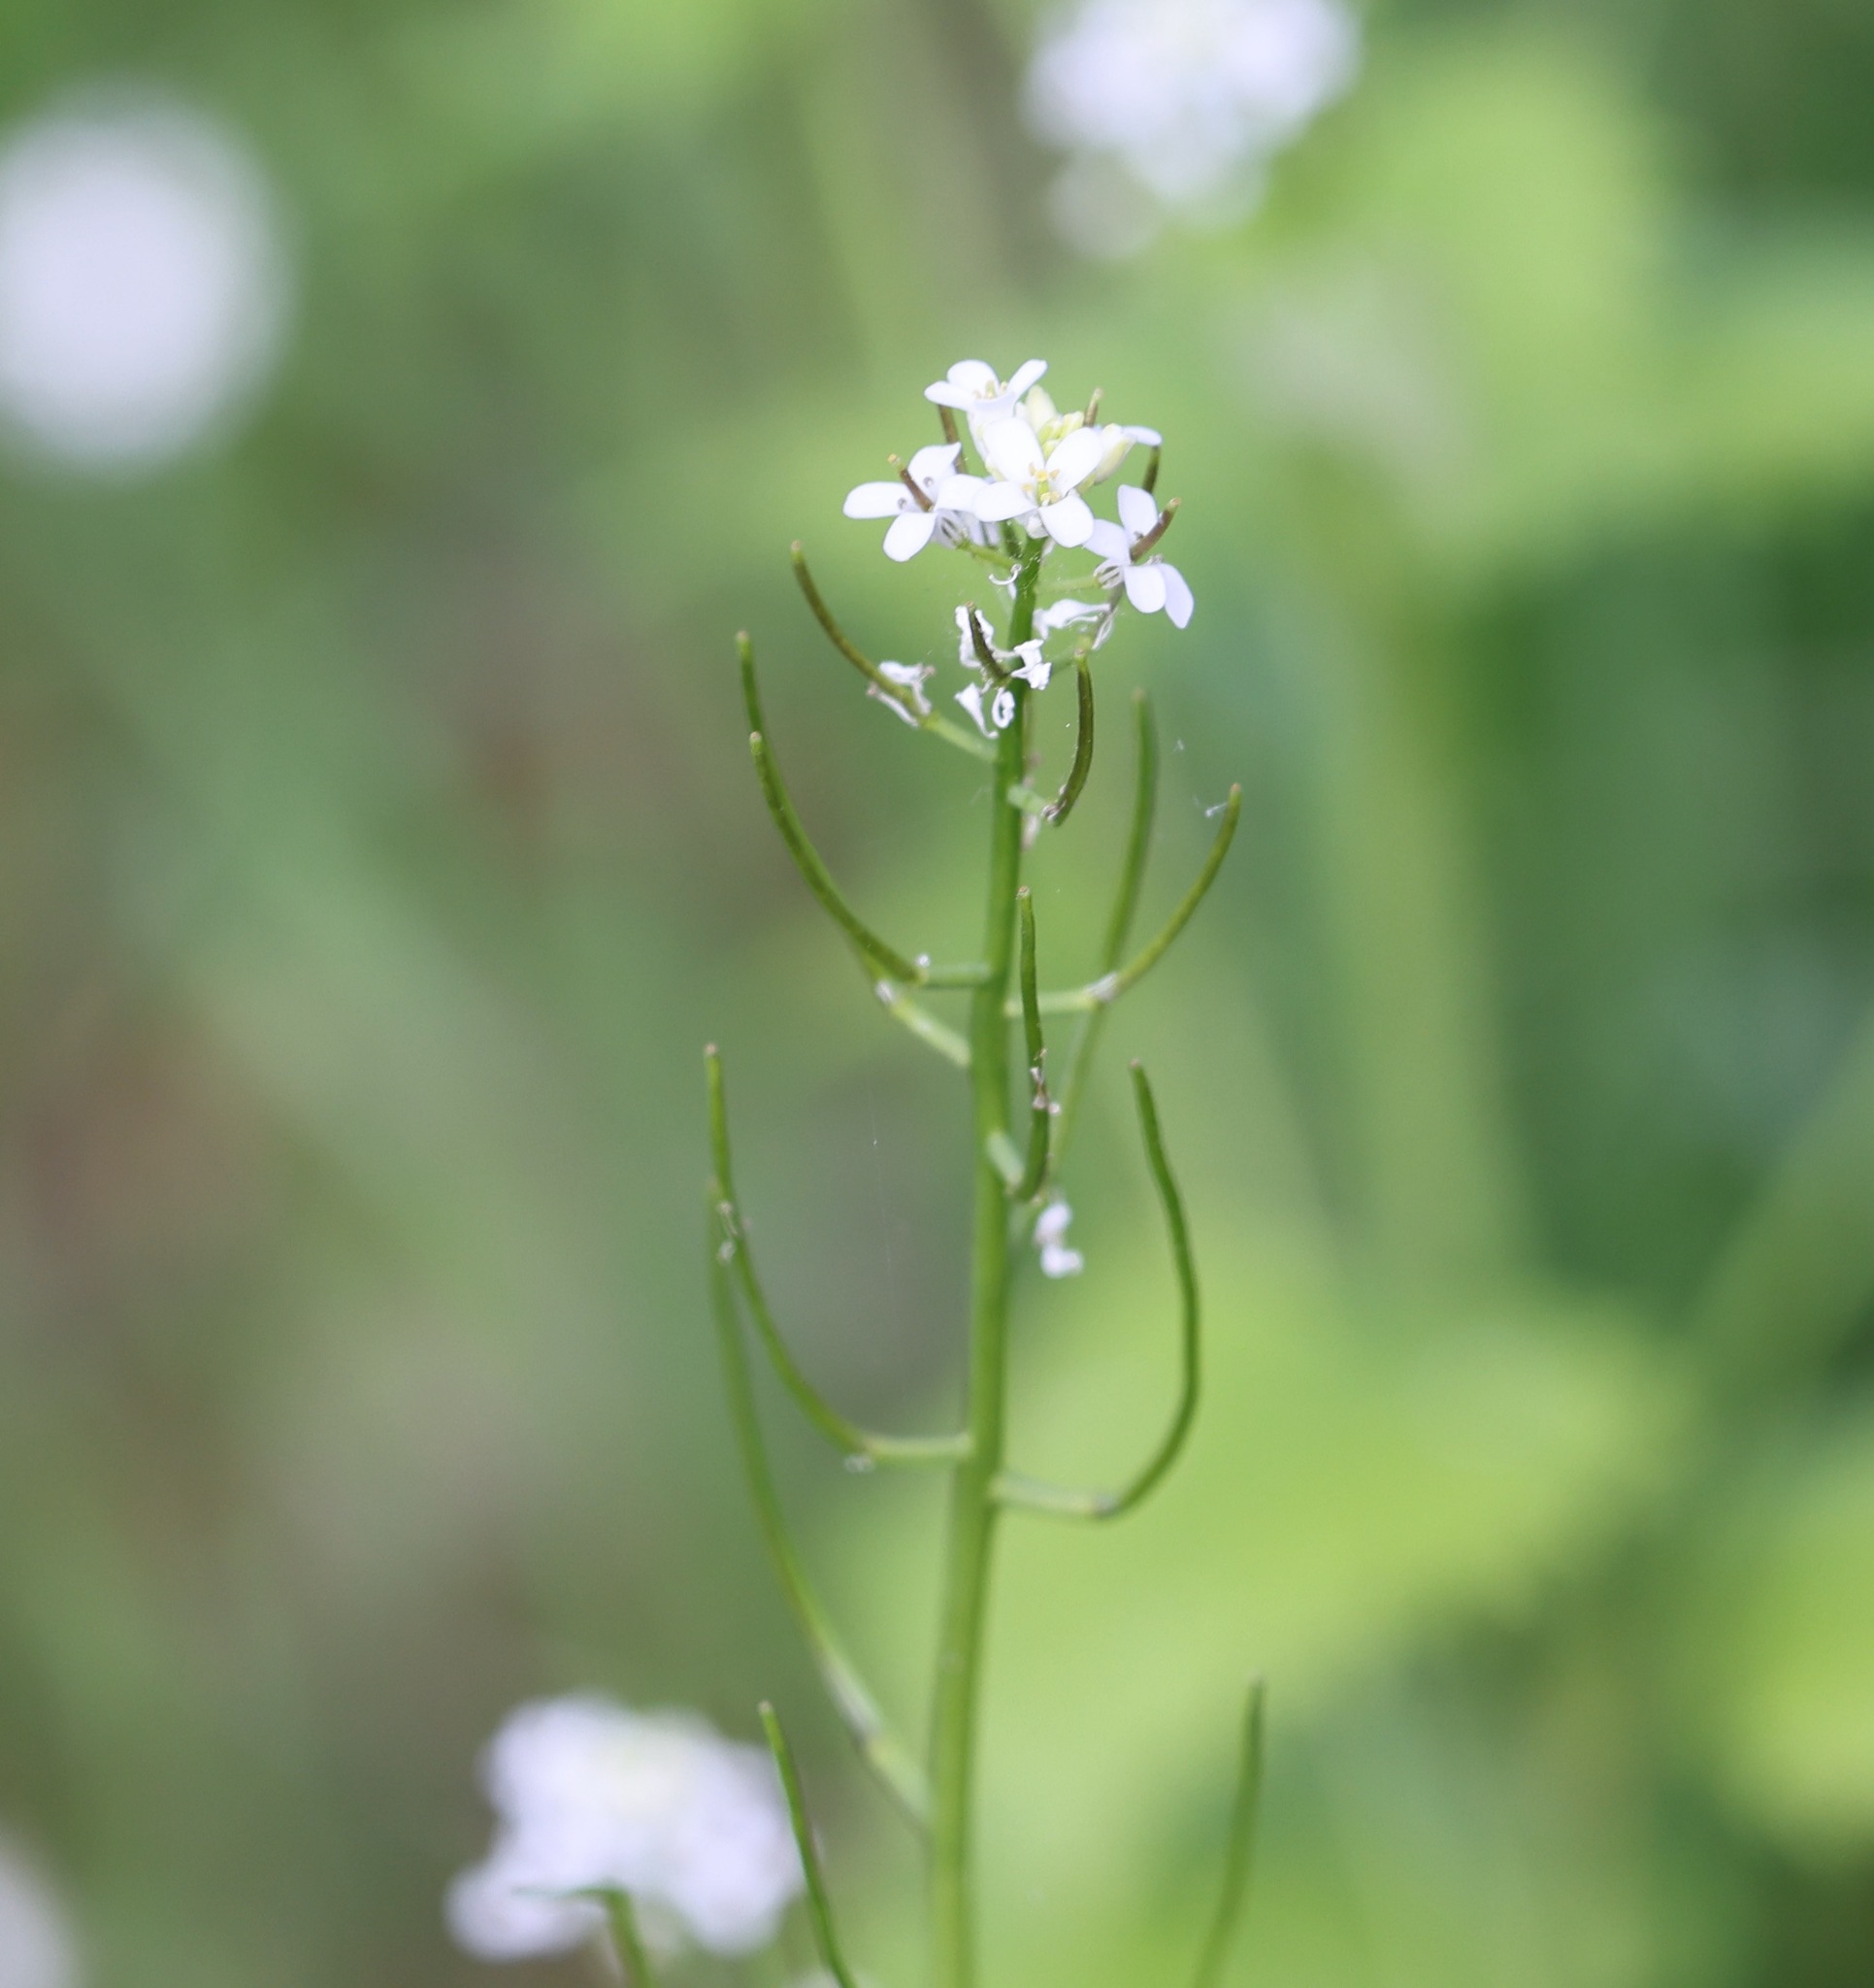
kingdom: Plantae
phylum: Tracheophyta
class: Magnoliopsida
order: Brassicales
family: Brassicaceae
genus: Alliaria
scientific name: Alliaria petiolata
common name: Garlic mustard
